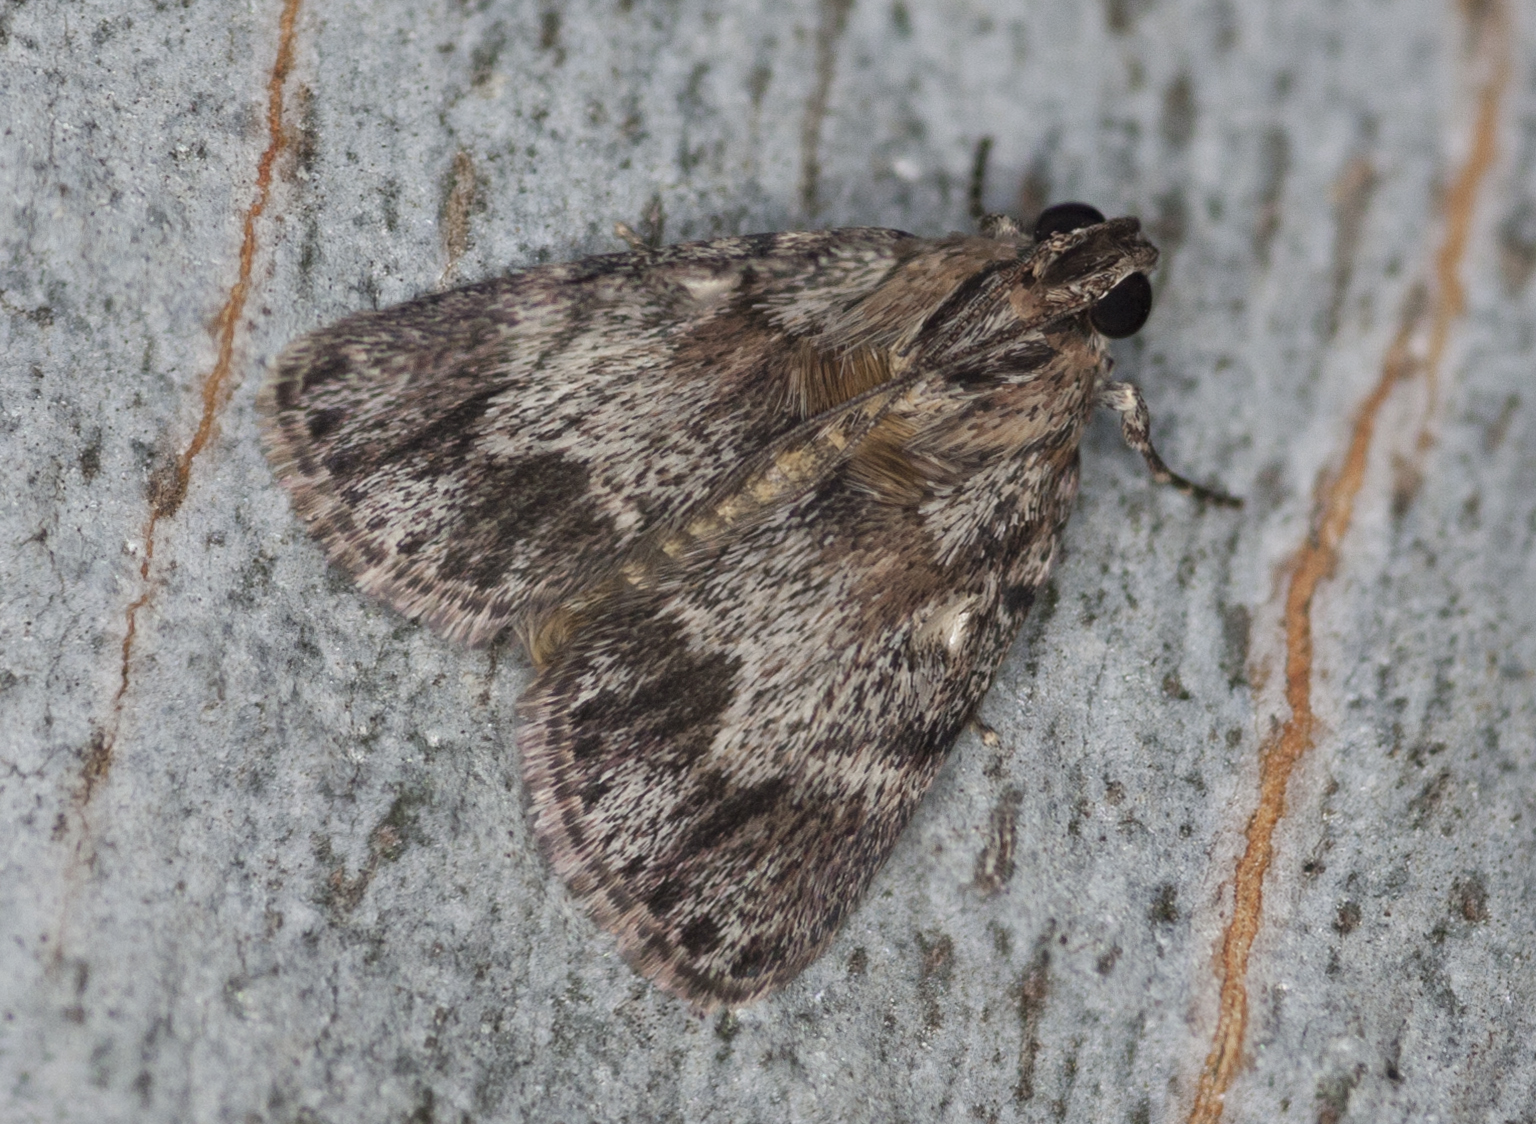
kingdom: Animalia
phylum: Arthropoda
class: Insecta
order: Lepidoptera
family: Pyralidae
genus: Spectrotrota
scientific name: Spectrotrota fimbrialis
